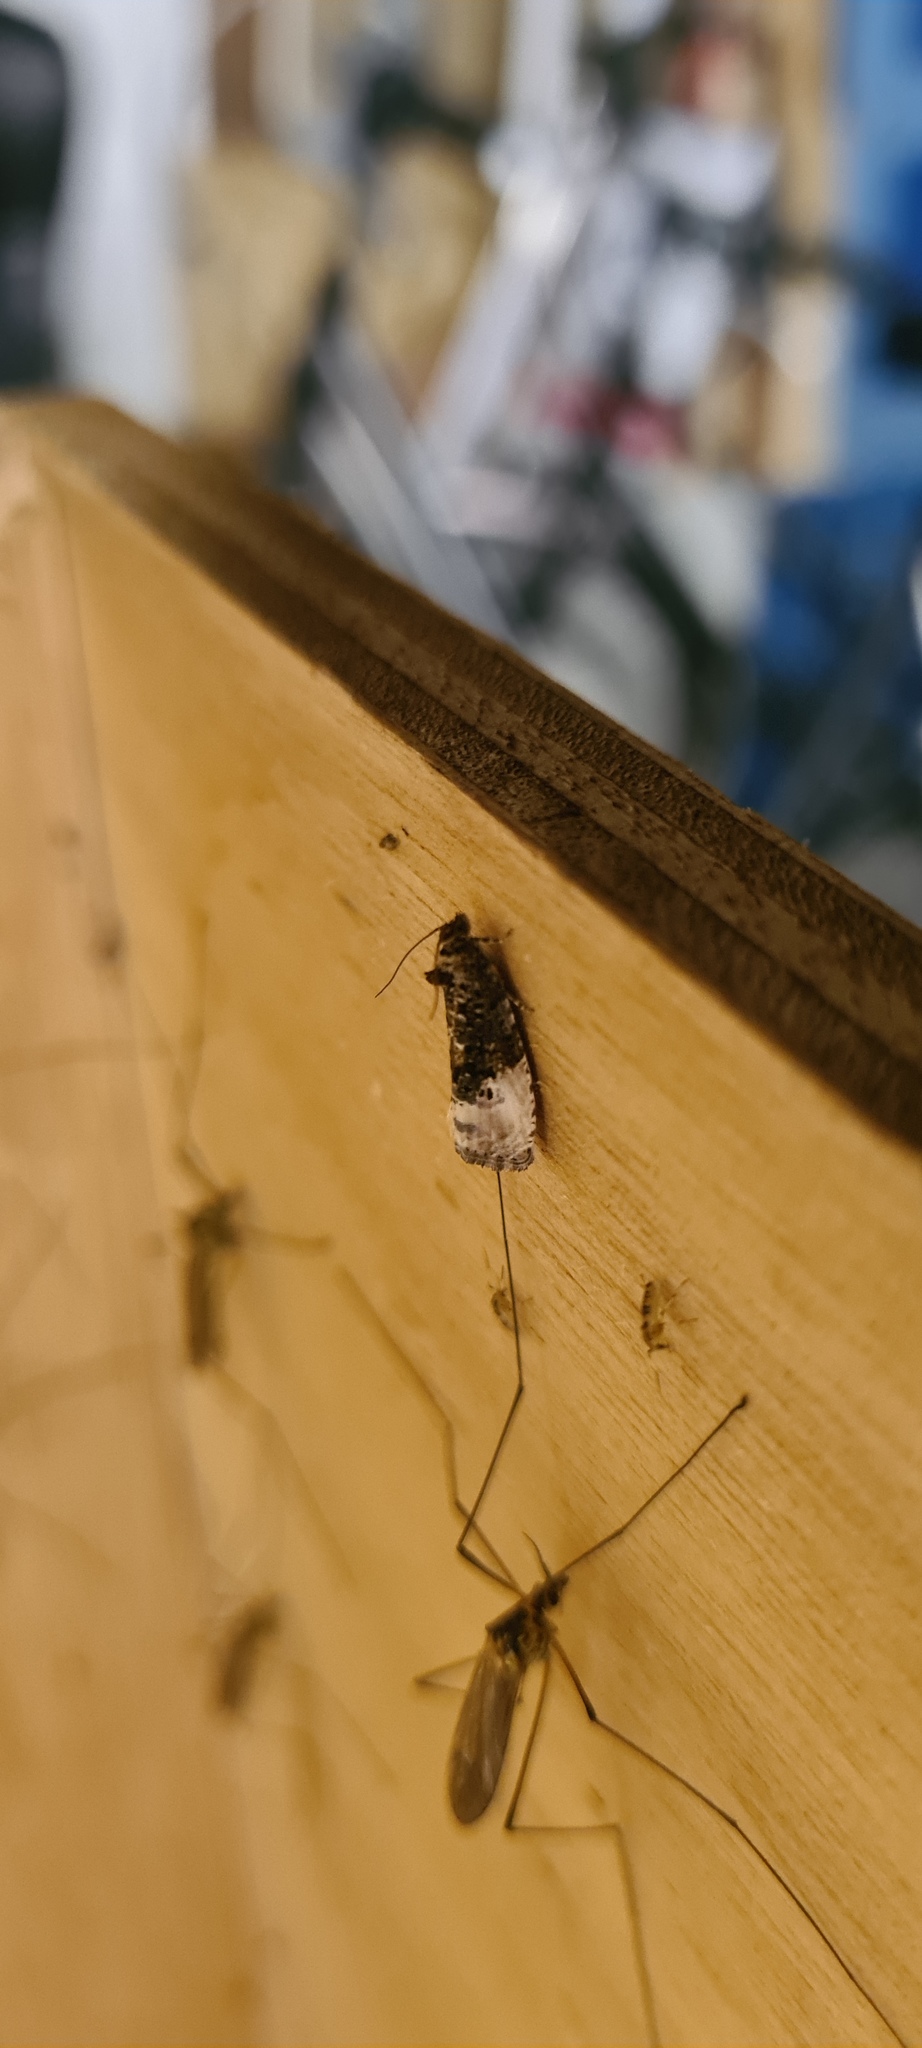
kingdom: Animalia
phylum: Arthropoda
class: Insecta
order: Lepidoptera
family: Tortricidae
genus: Hedya
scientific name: Hedya nubiferana
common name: Marbled orchard tortrix
